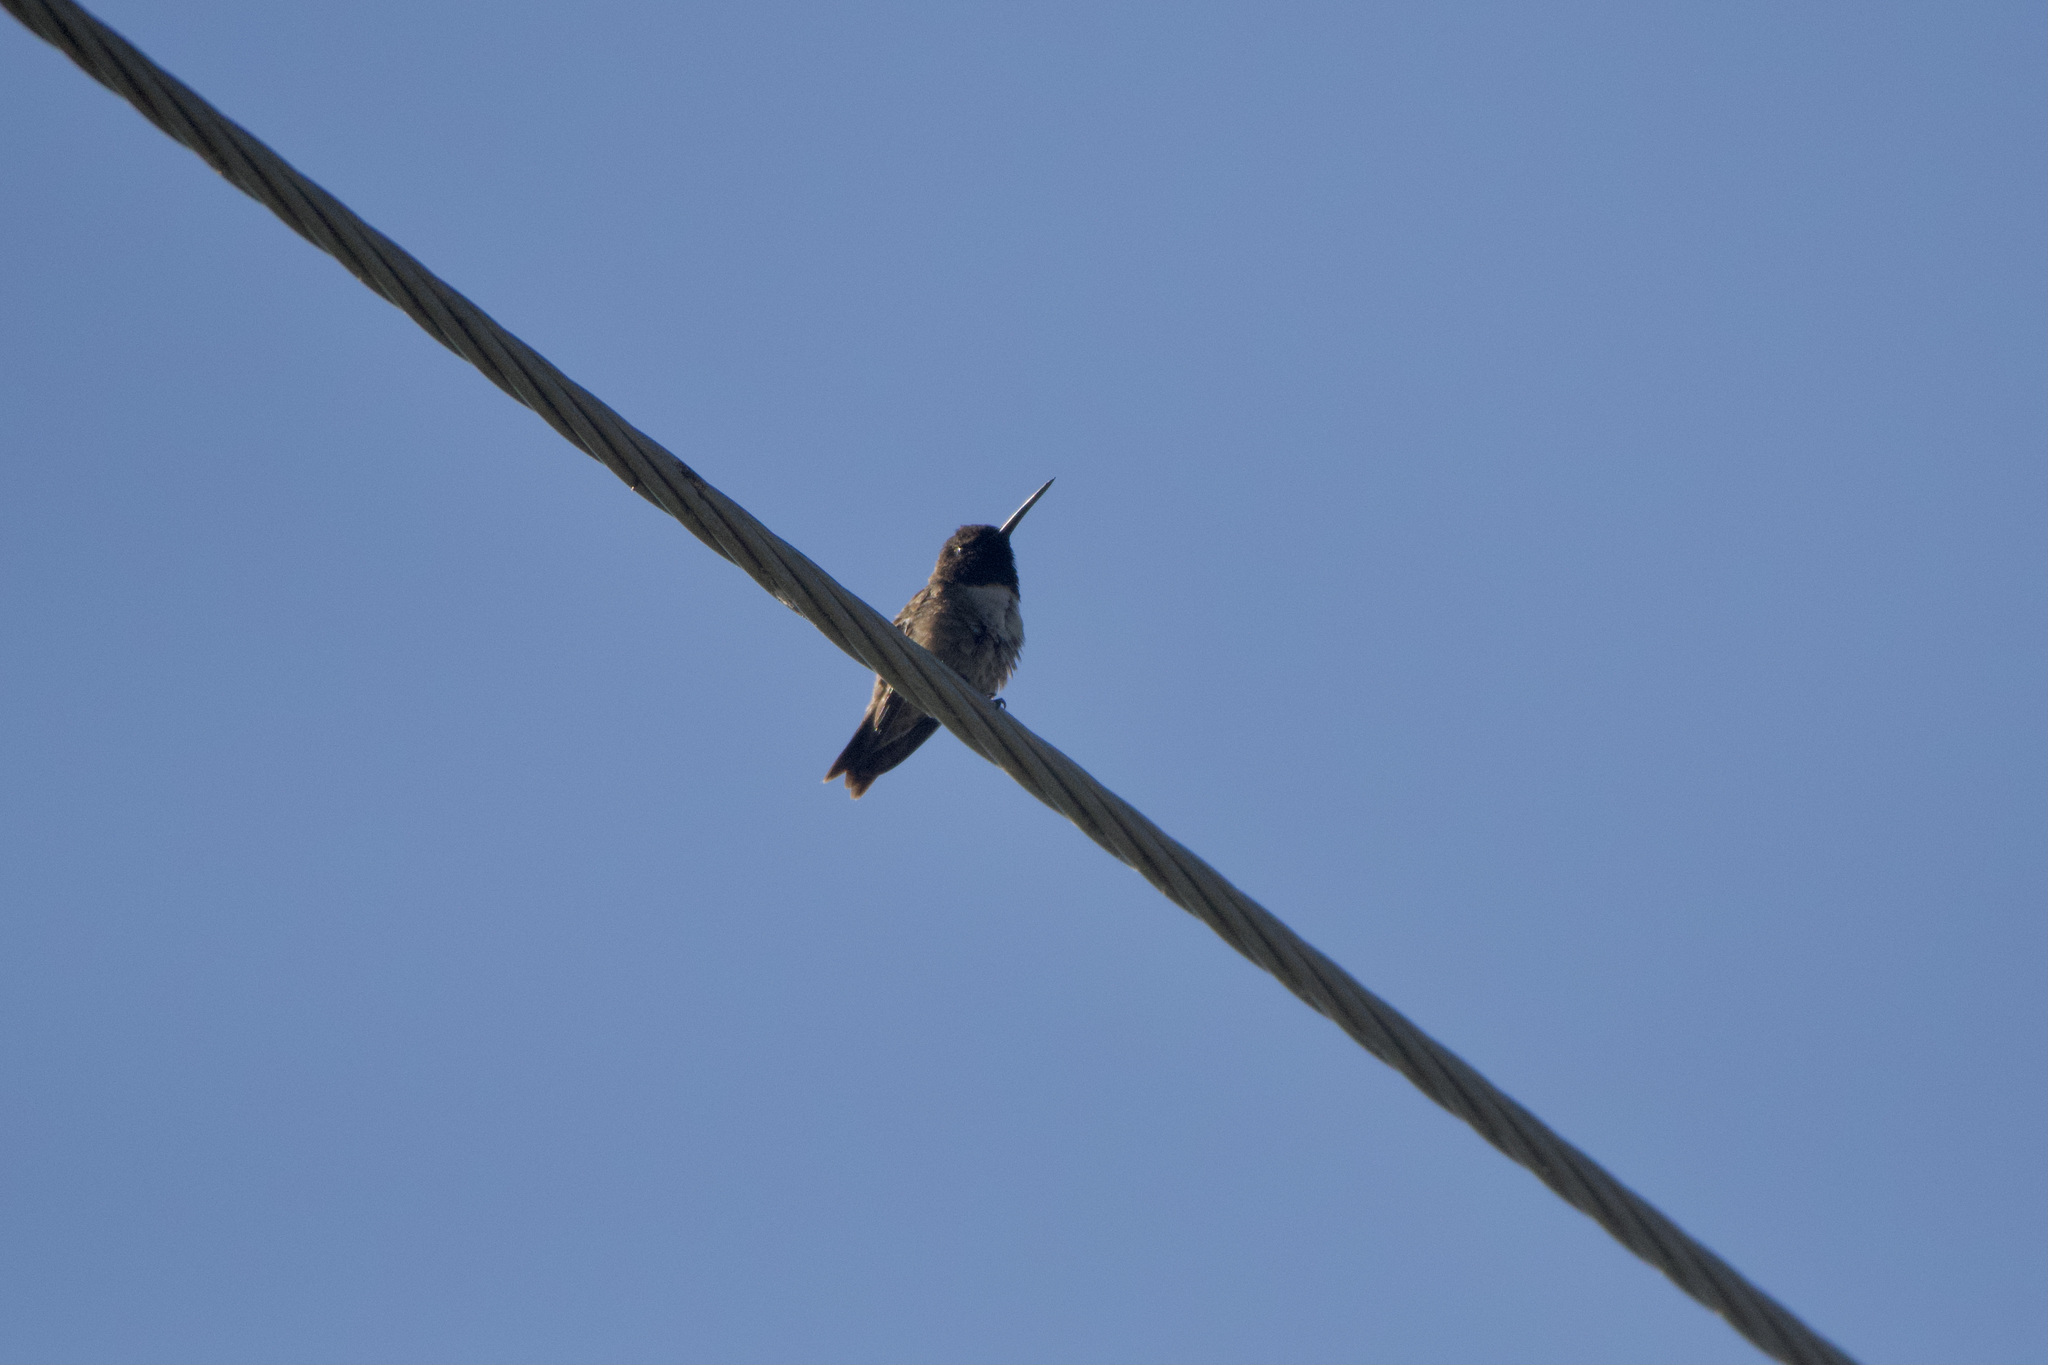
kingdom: Animalia
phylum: Chordata
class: Aves
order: Apodiformes
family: Trochilidae
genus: Archilochus
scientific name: Archilochus alexandri
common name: Black-chinned hummingbird
